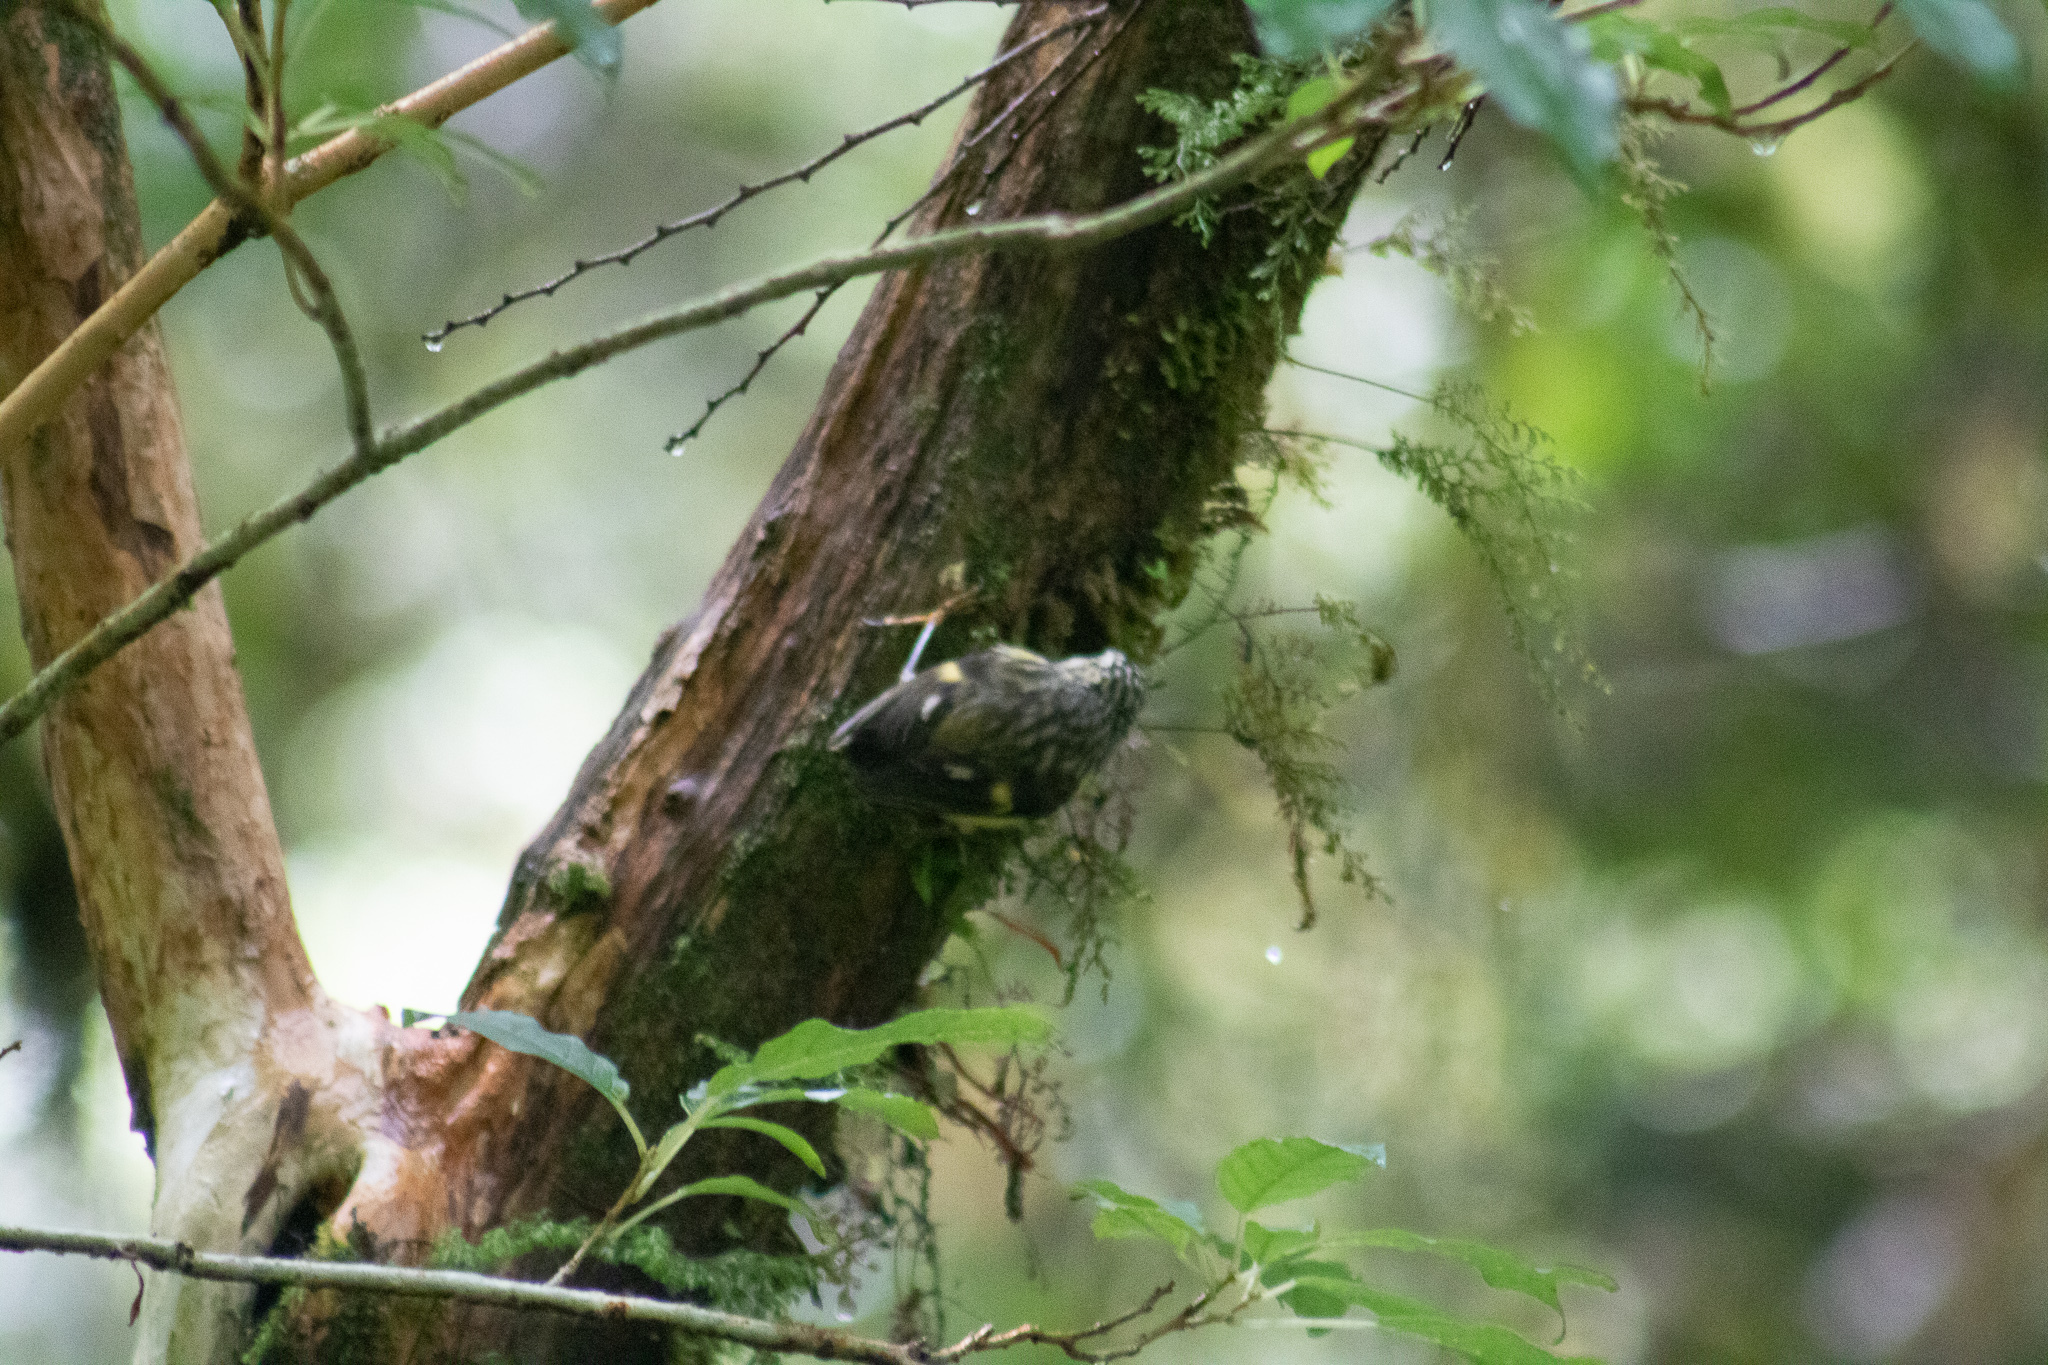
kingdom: Animalia
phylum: Chordata
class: Aves
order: Passeriformes
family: Acanthisittidae
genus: Acanthisitta
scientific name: Acanthisitta chloris
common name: Rifleman
